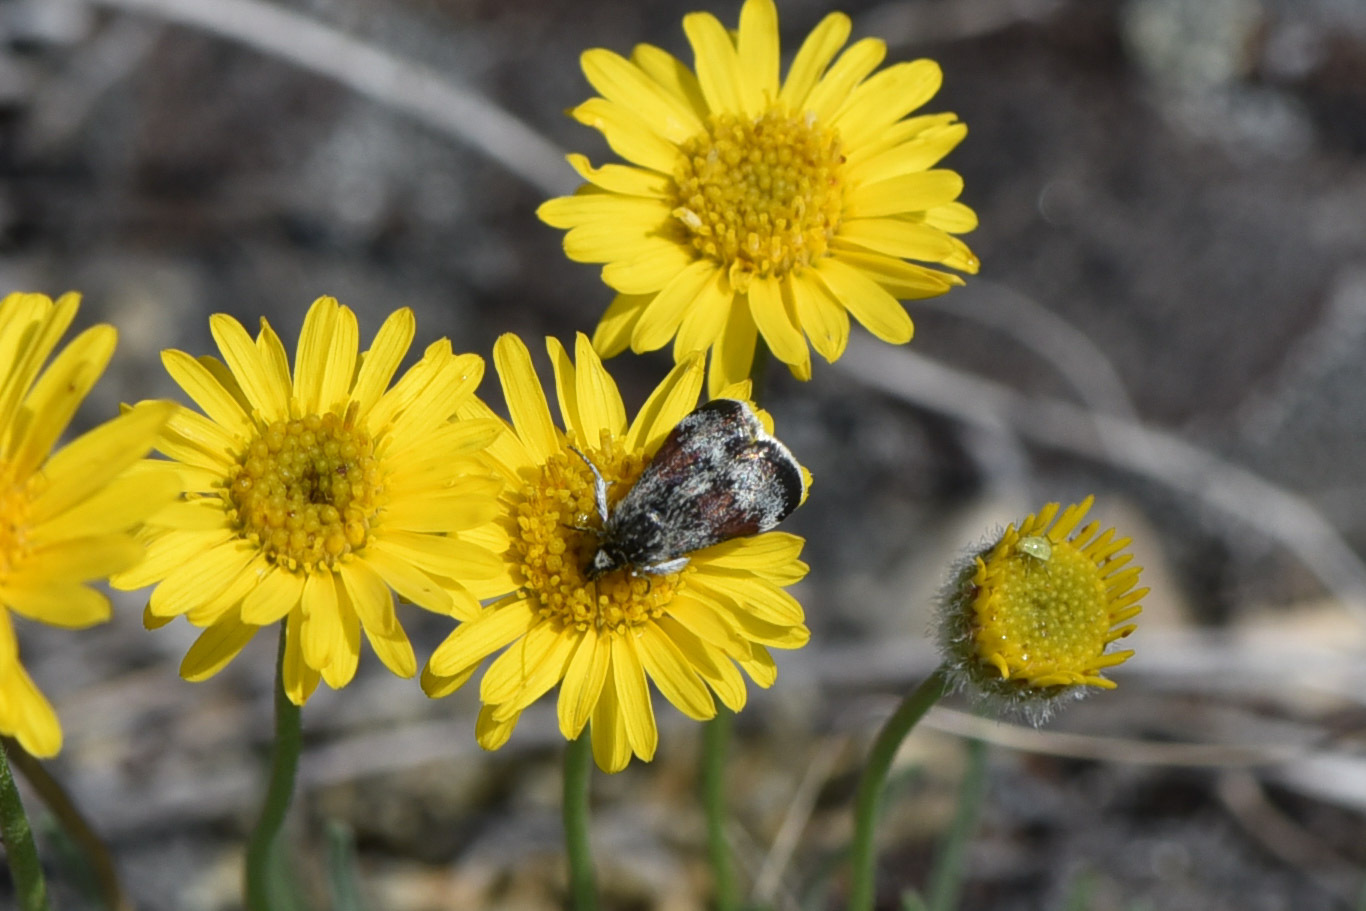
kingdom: Animalia
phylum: Arthropoda
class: Insecta
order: Lepidoptera
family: Crambidae
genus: Anatralata
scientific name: Anatralata versicolor
